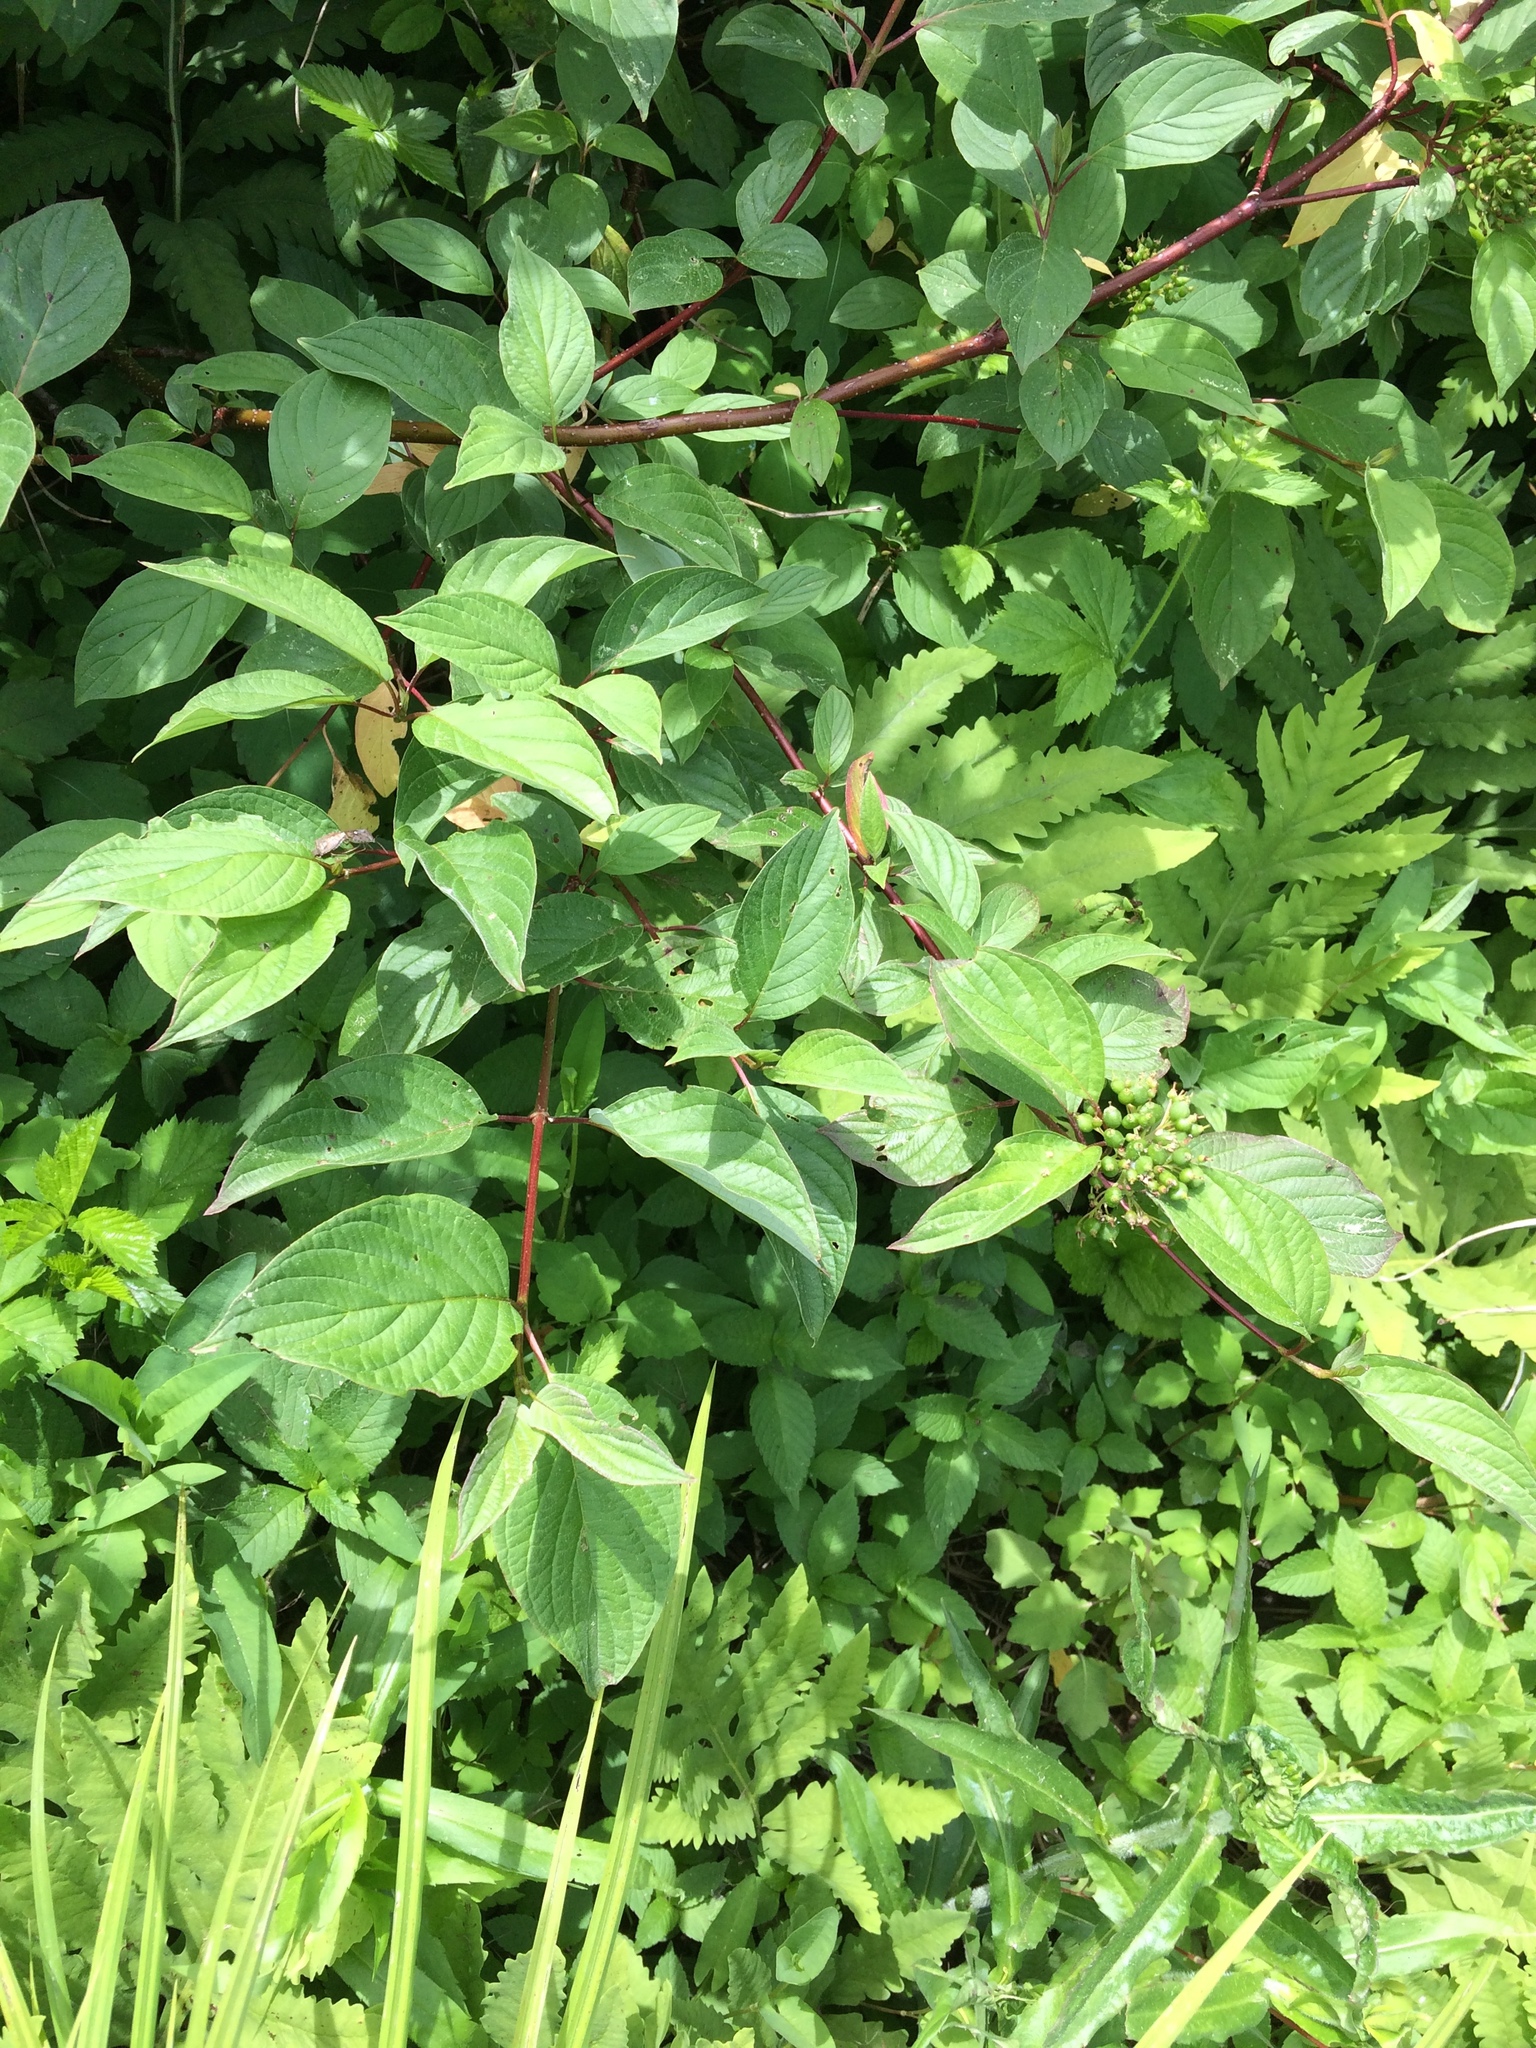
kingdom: Plantae
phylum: Tracheophyta
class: Magnoliopsida
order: Cornales
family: Cornaceae
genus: Cornus
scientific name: Cornus sericea
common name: Red-osier dogwood
